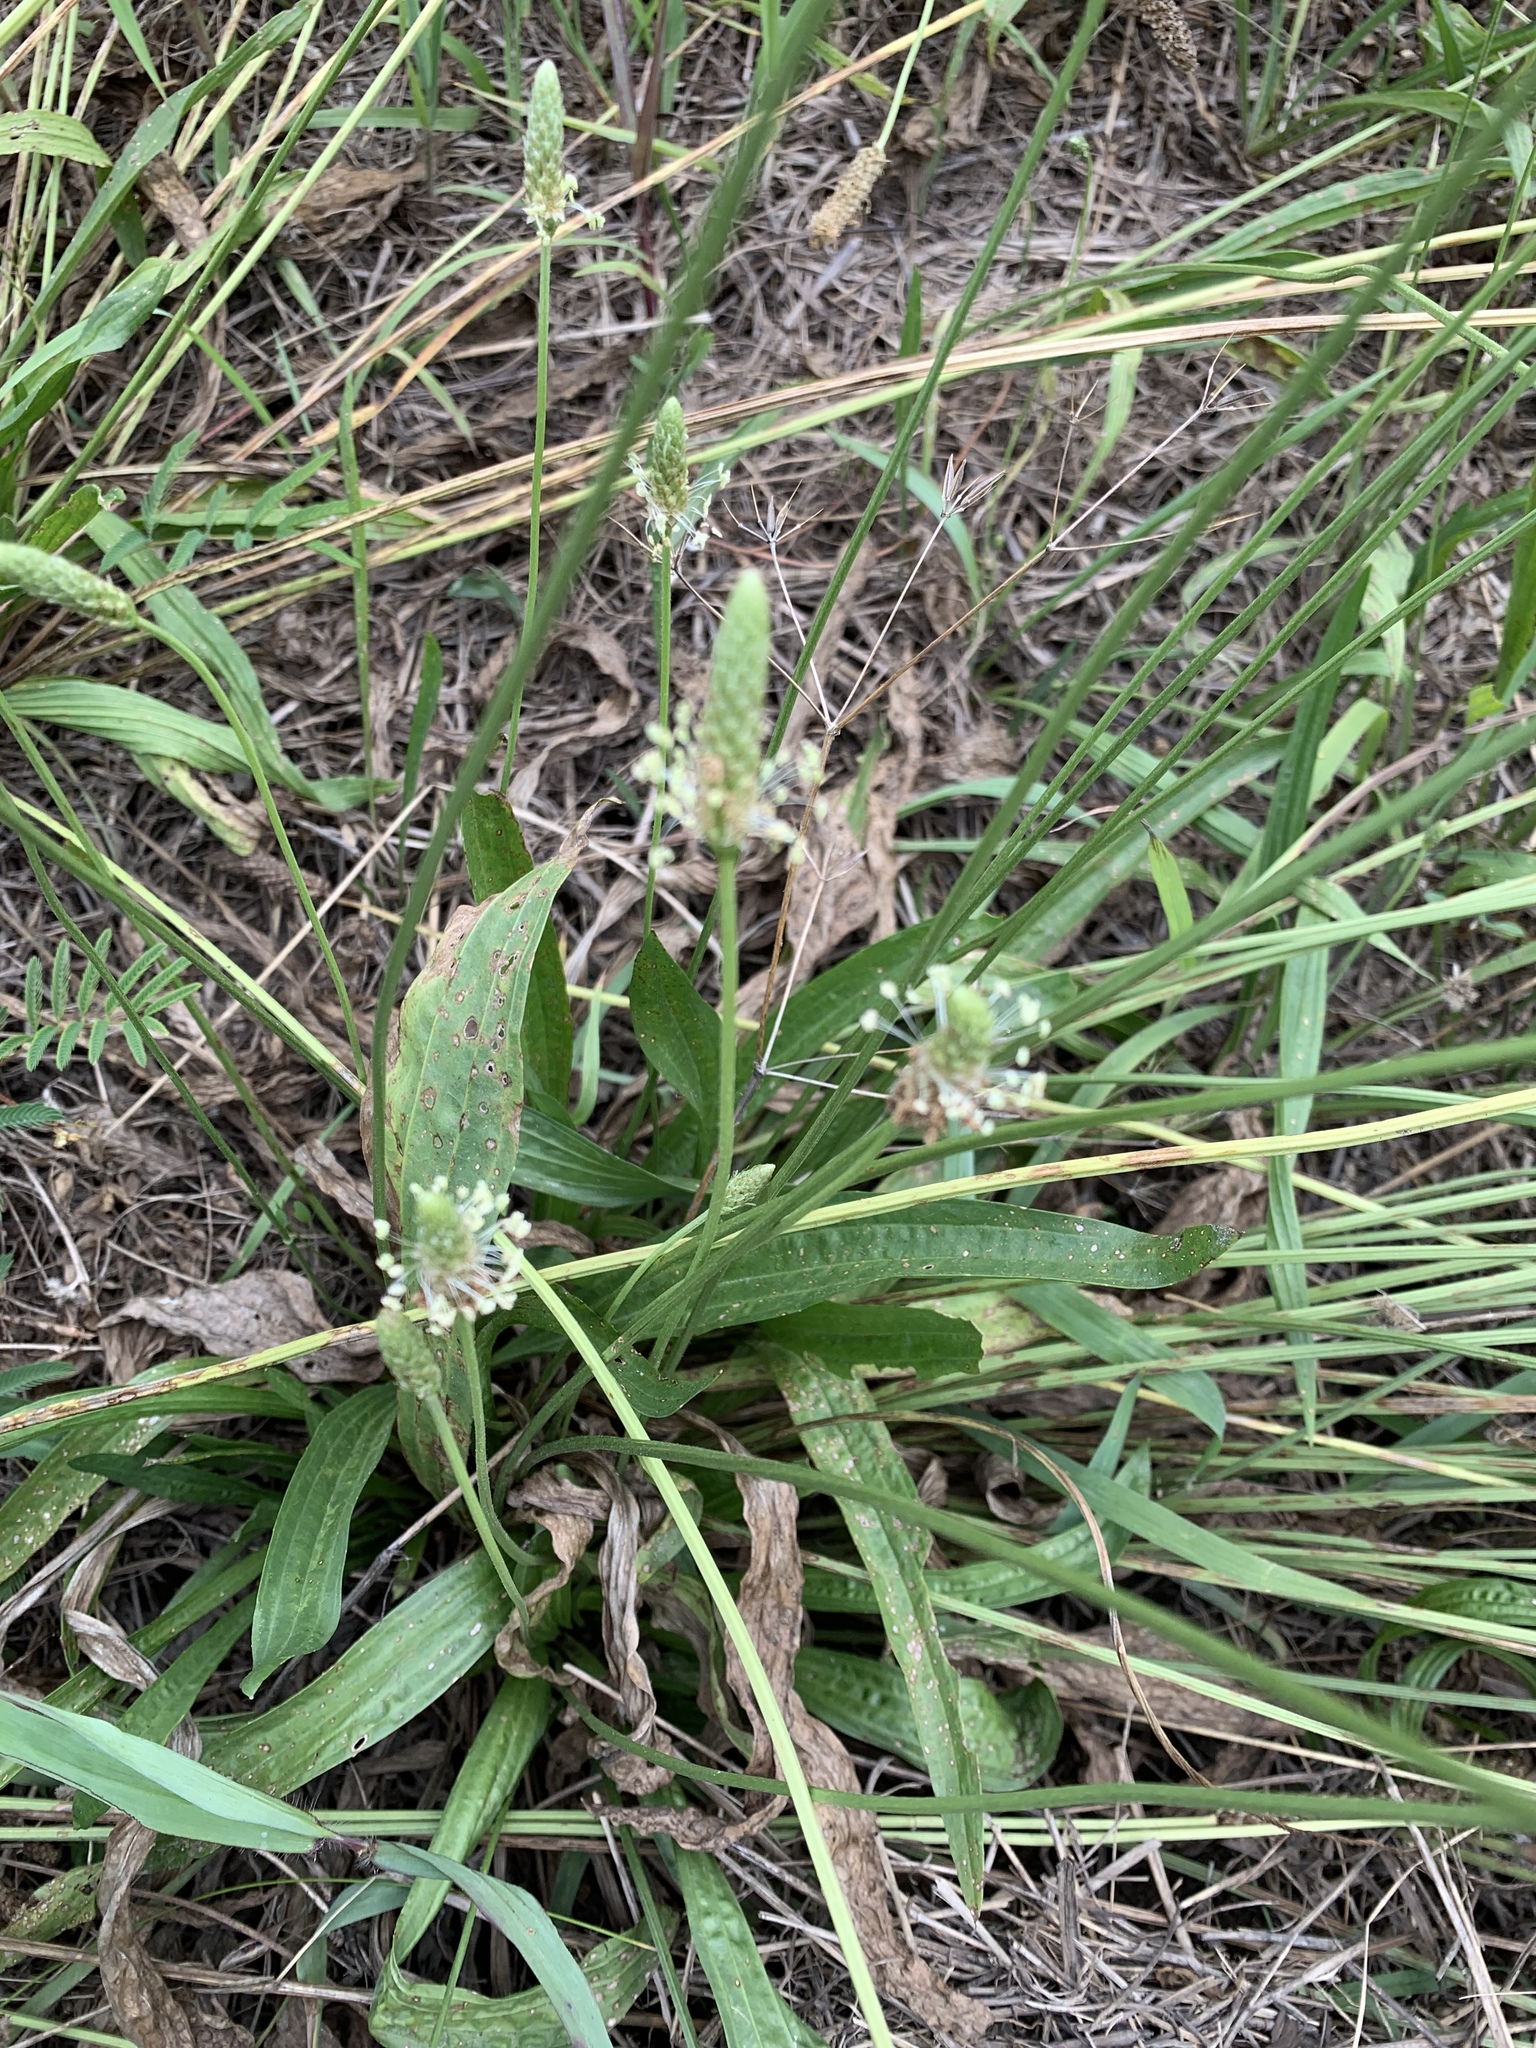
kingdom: Plantae
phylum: Tracheophyta
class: Magnoliopsida
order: Lamiales
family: Plantaginaceae
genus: Plantago
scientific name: Plantago lanceolata
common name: Ribwort plantain
